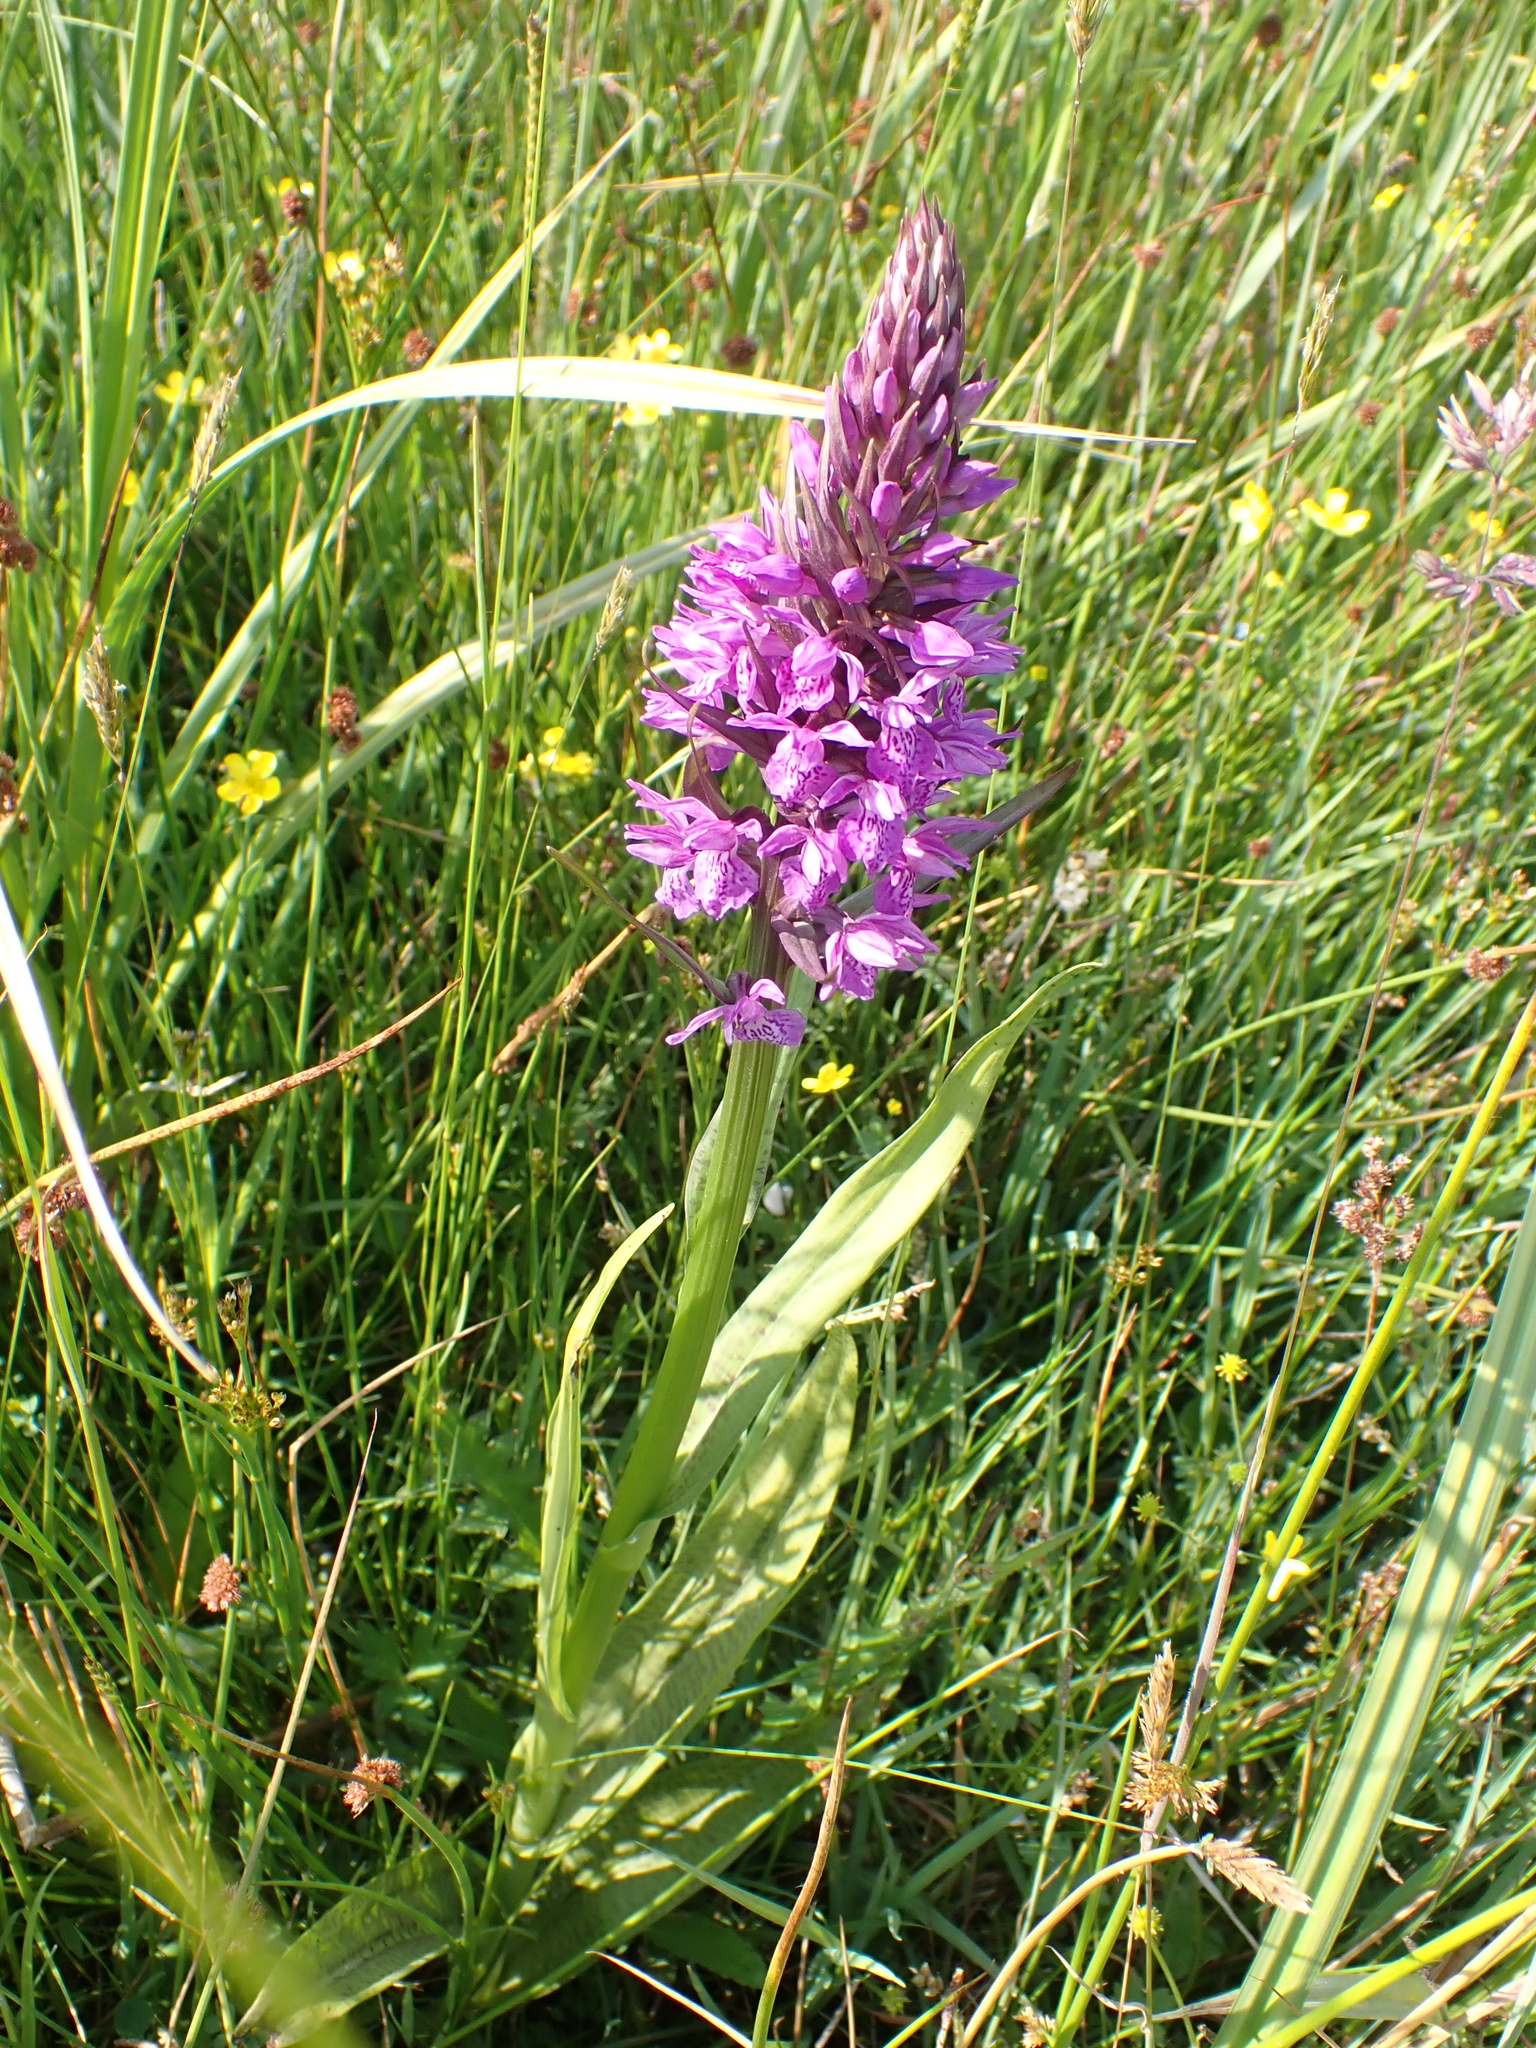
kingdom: Plantae
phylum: Tracheophyta
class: Liliopsida
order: Asparagales
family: Orchidaceae
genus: Dactylorhiza
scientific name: Dactylorhiza majalis
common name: Marsh orchid
